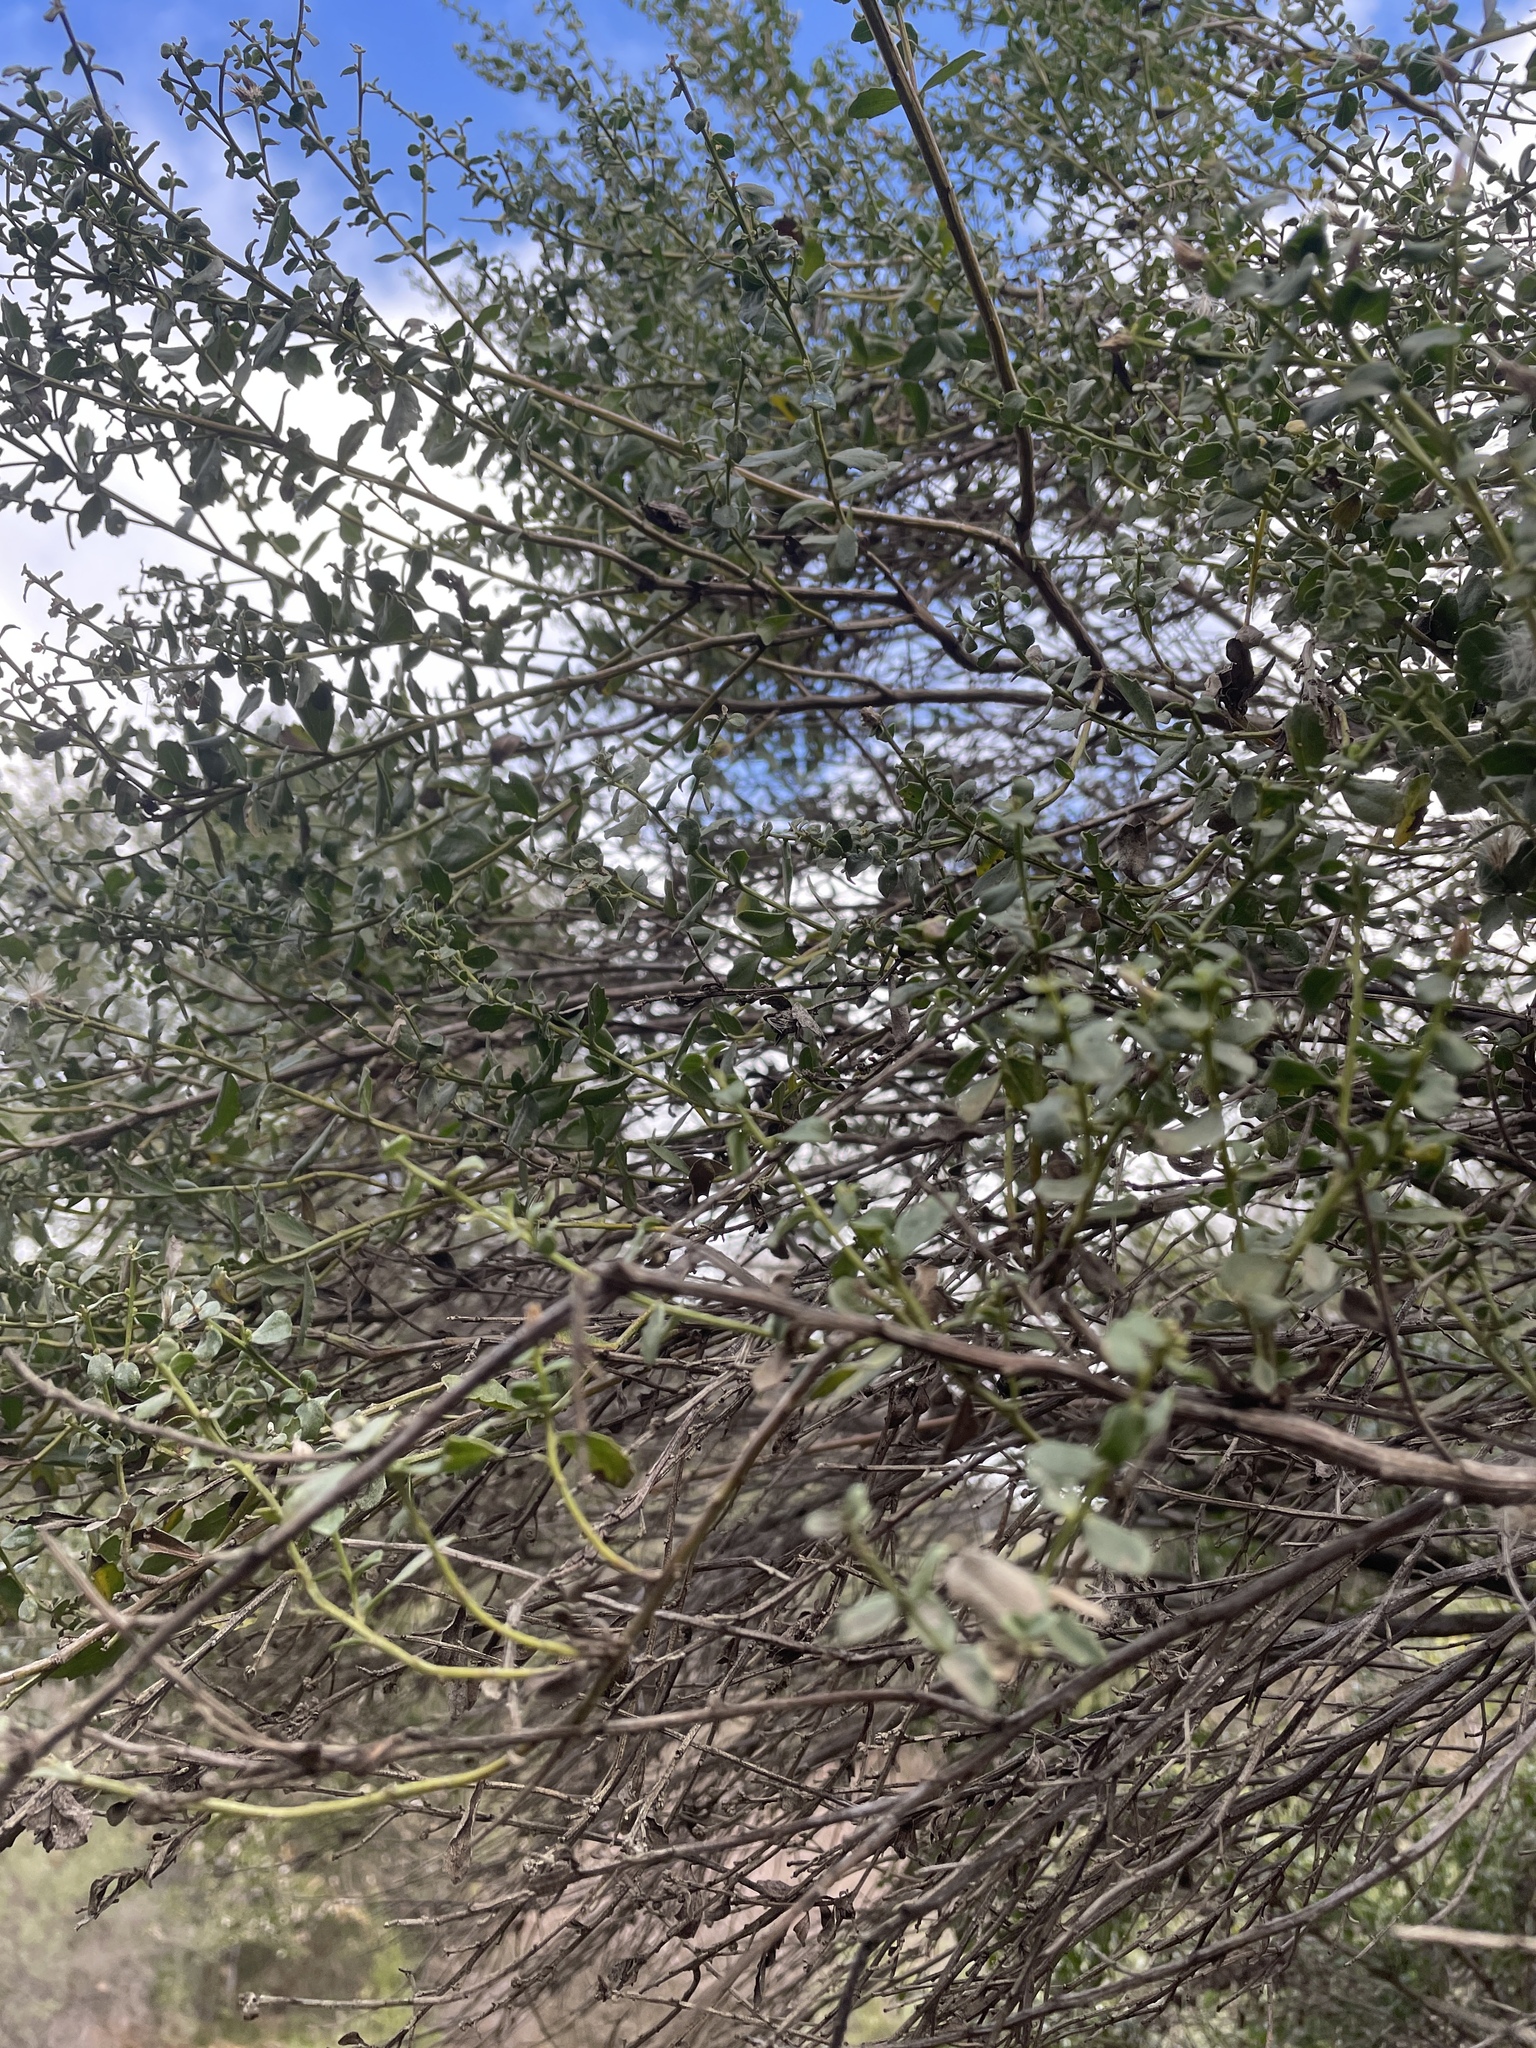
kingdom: Plantae
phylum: Tracheophyta
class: Magnoliopsida
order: Asterales
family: Asteraceae
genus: Baccharis
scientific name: Baccharis pilularis
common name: Coyotebrush
